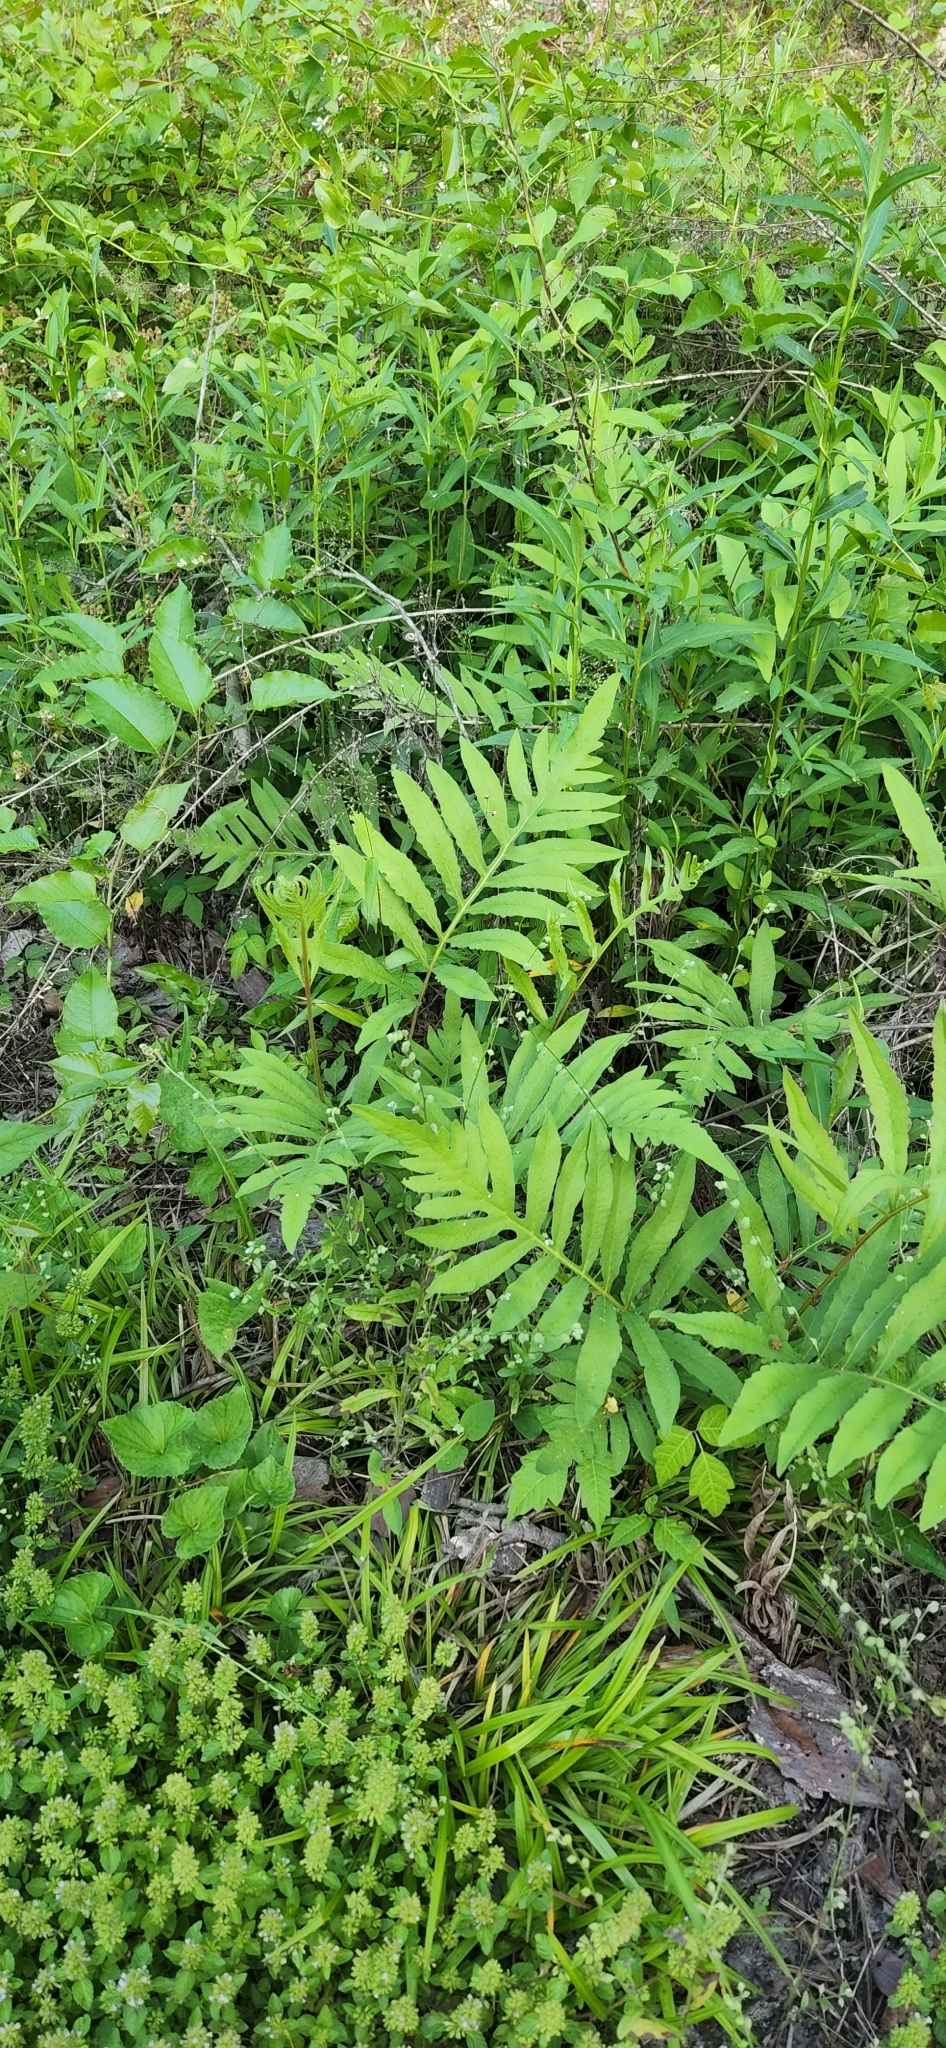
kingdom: Plantae
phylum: Tracheophyta
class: Polypodiopsida
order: Polypodiales
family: Onocleaceae
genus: Onoclea
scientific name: Onoclea sensibilis
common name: Sensitive fern
